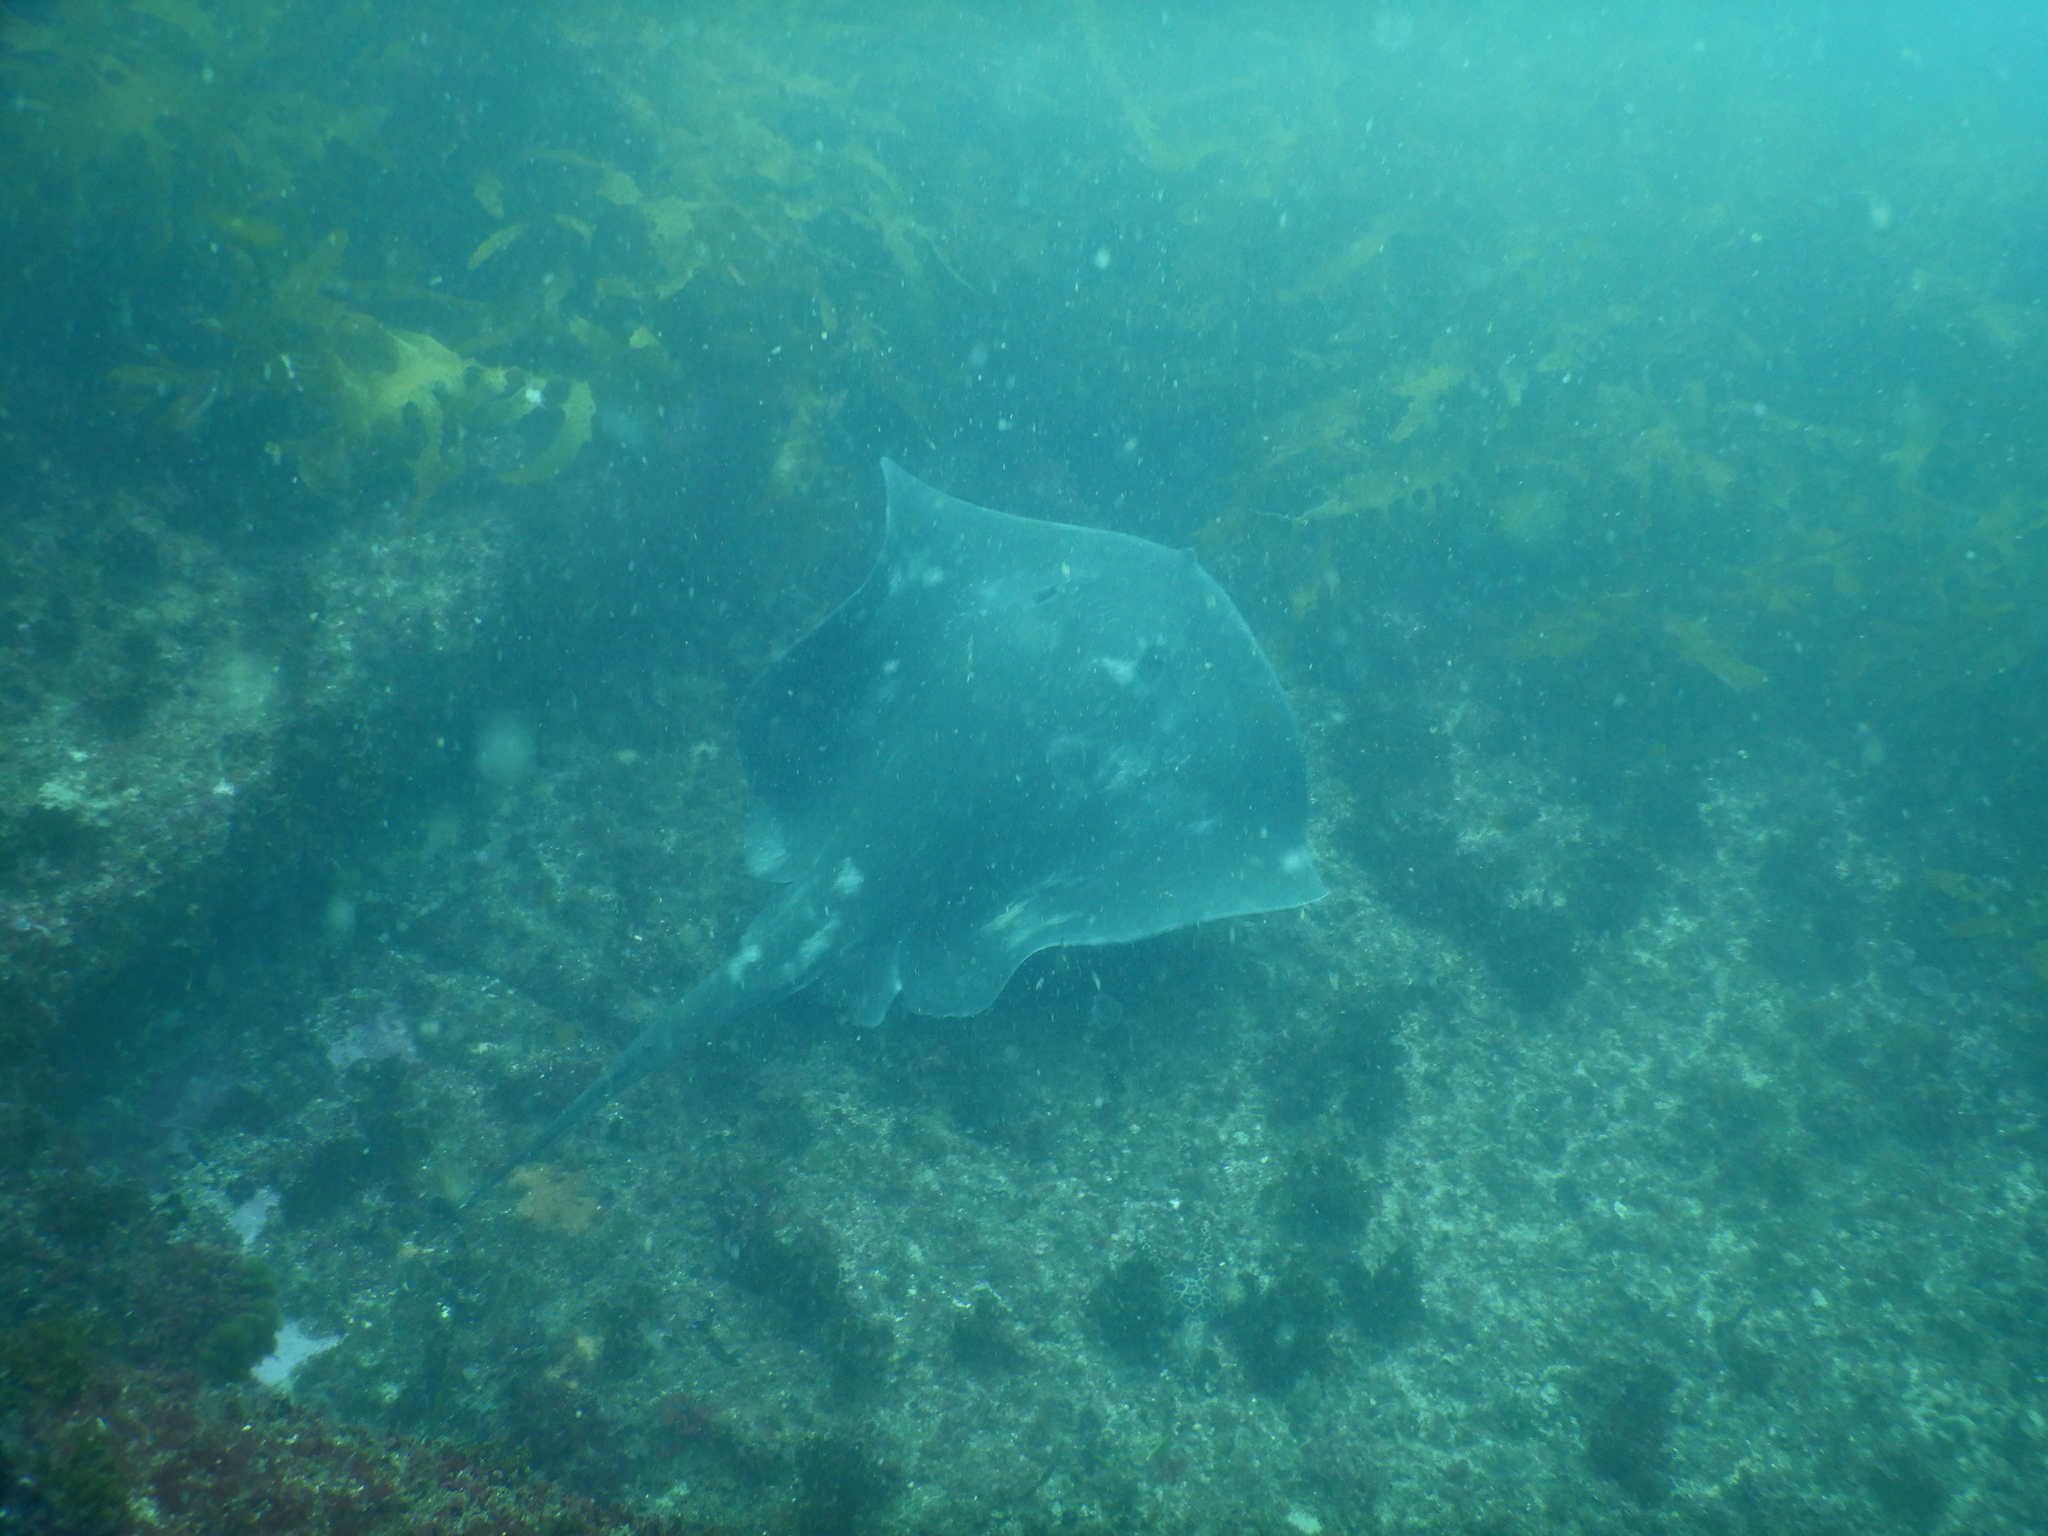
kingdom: Animalia
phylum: Chordata
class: Elasmobranchii
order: Myliobatiformes
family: Dasyatidae
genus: Bathytoshia
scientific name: Bathytoshia brevicaudata
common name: Short-tail stingray
